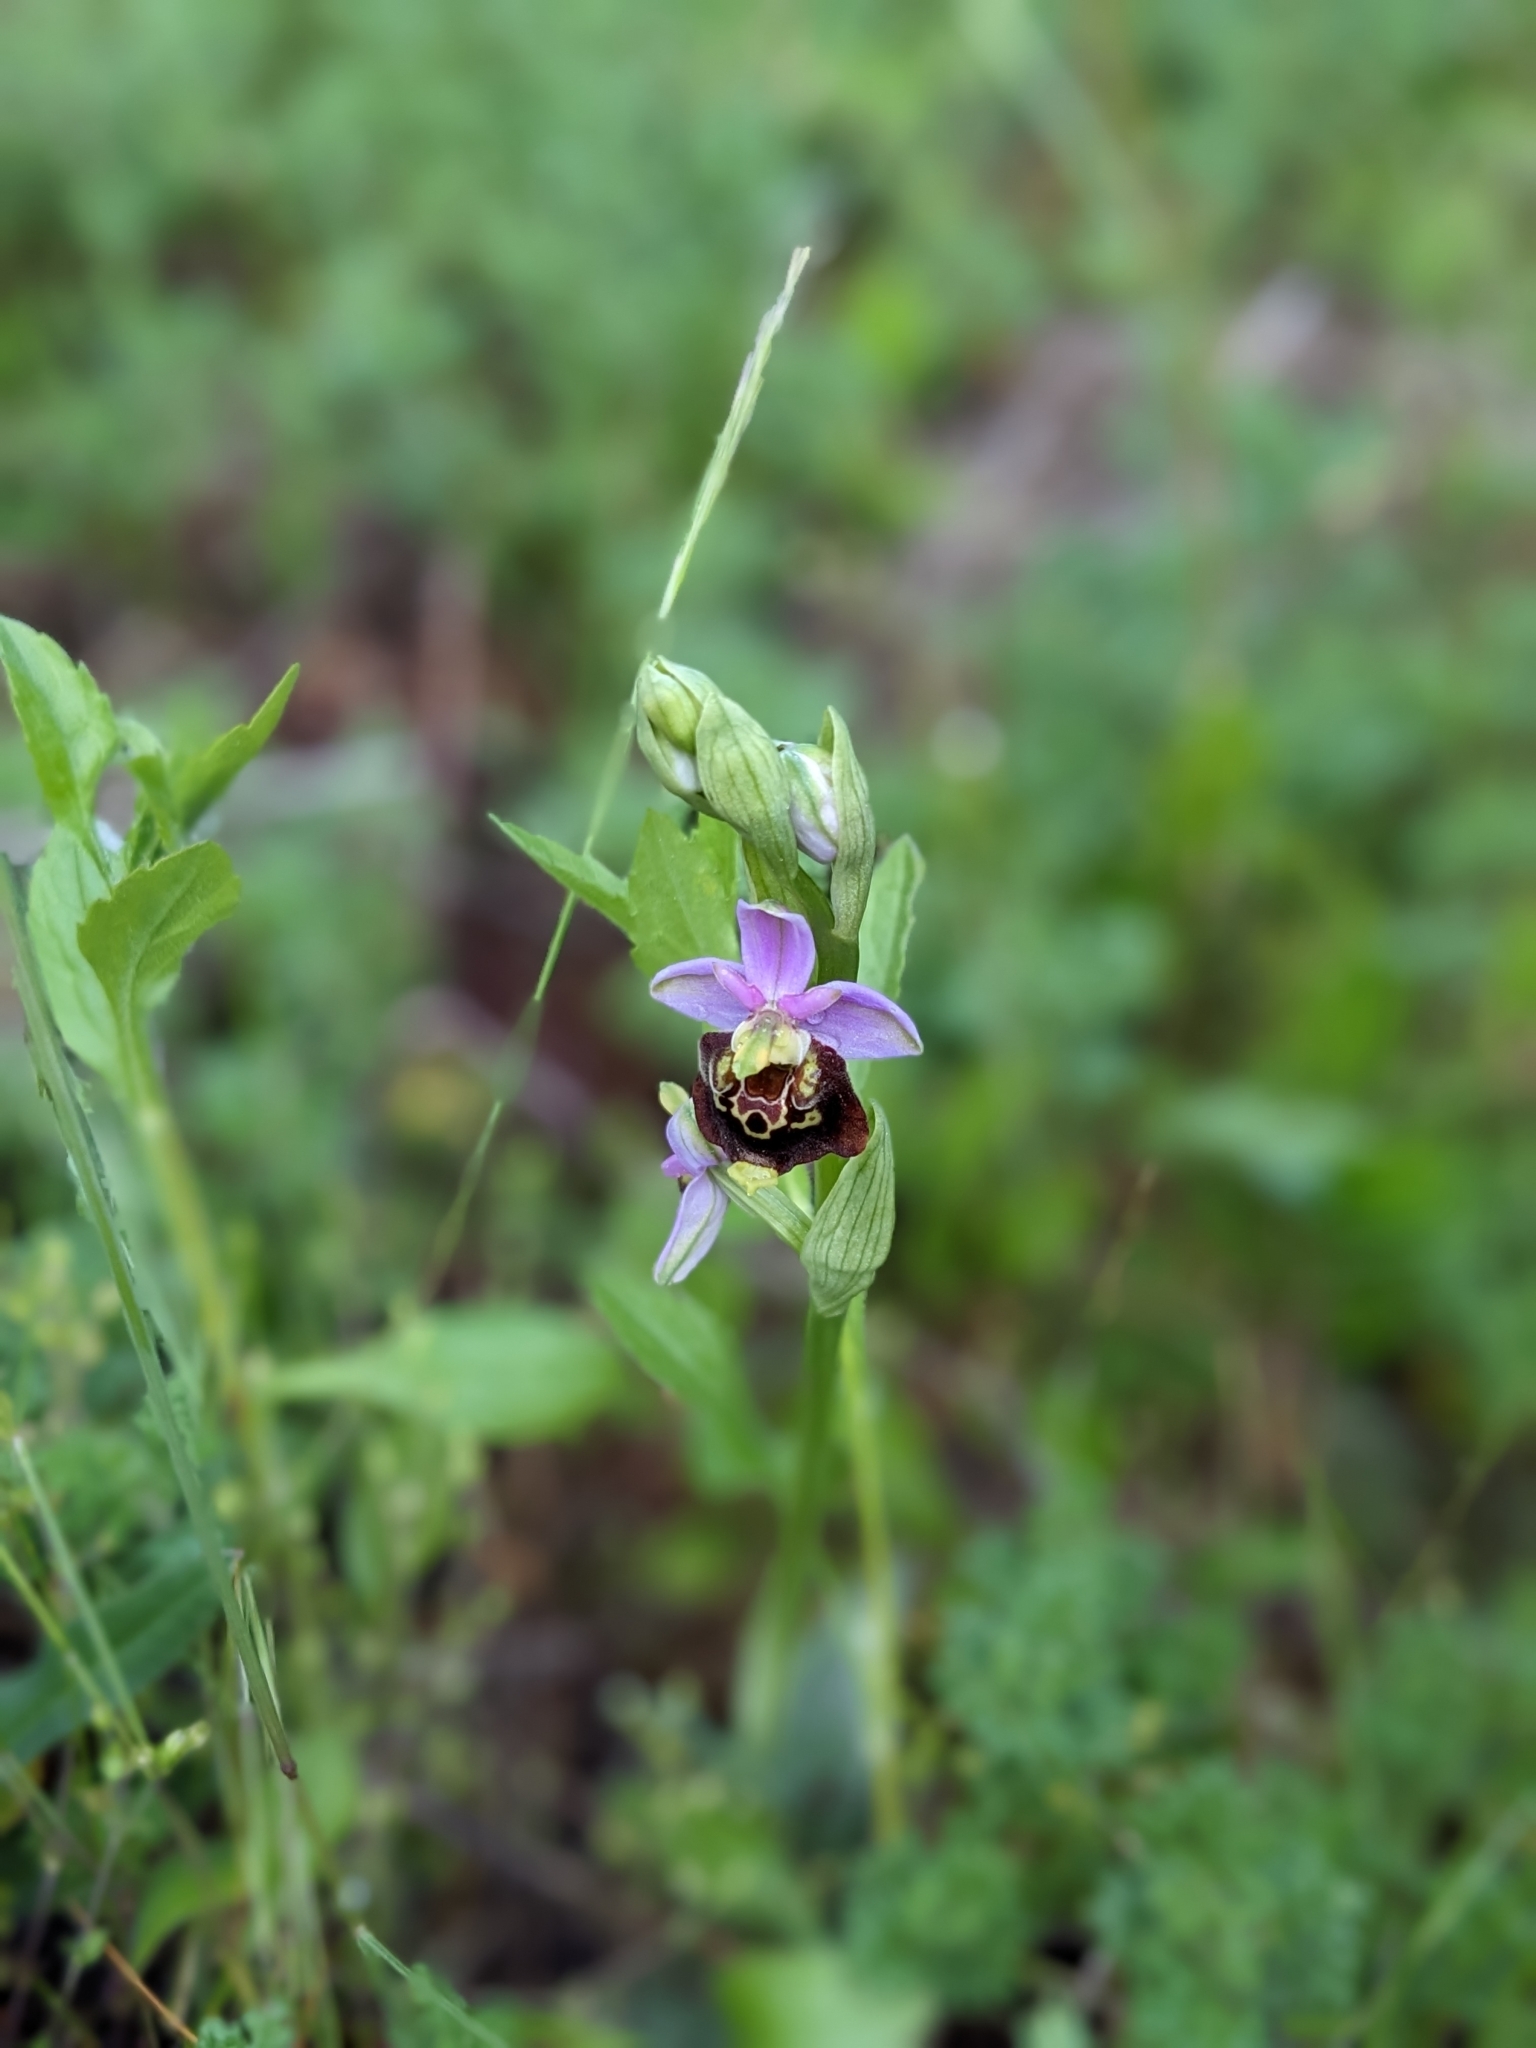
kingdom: Plantae
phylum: Tracheophyta
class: Liliopsida
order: Asparagales
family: Orchidaceae
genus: Ophrys
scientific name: Ophrys holosericea
